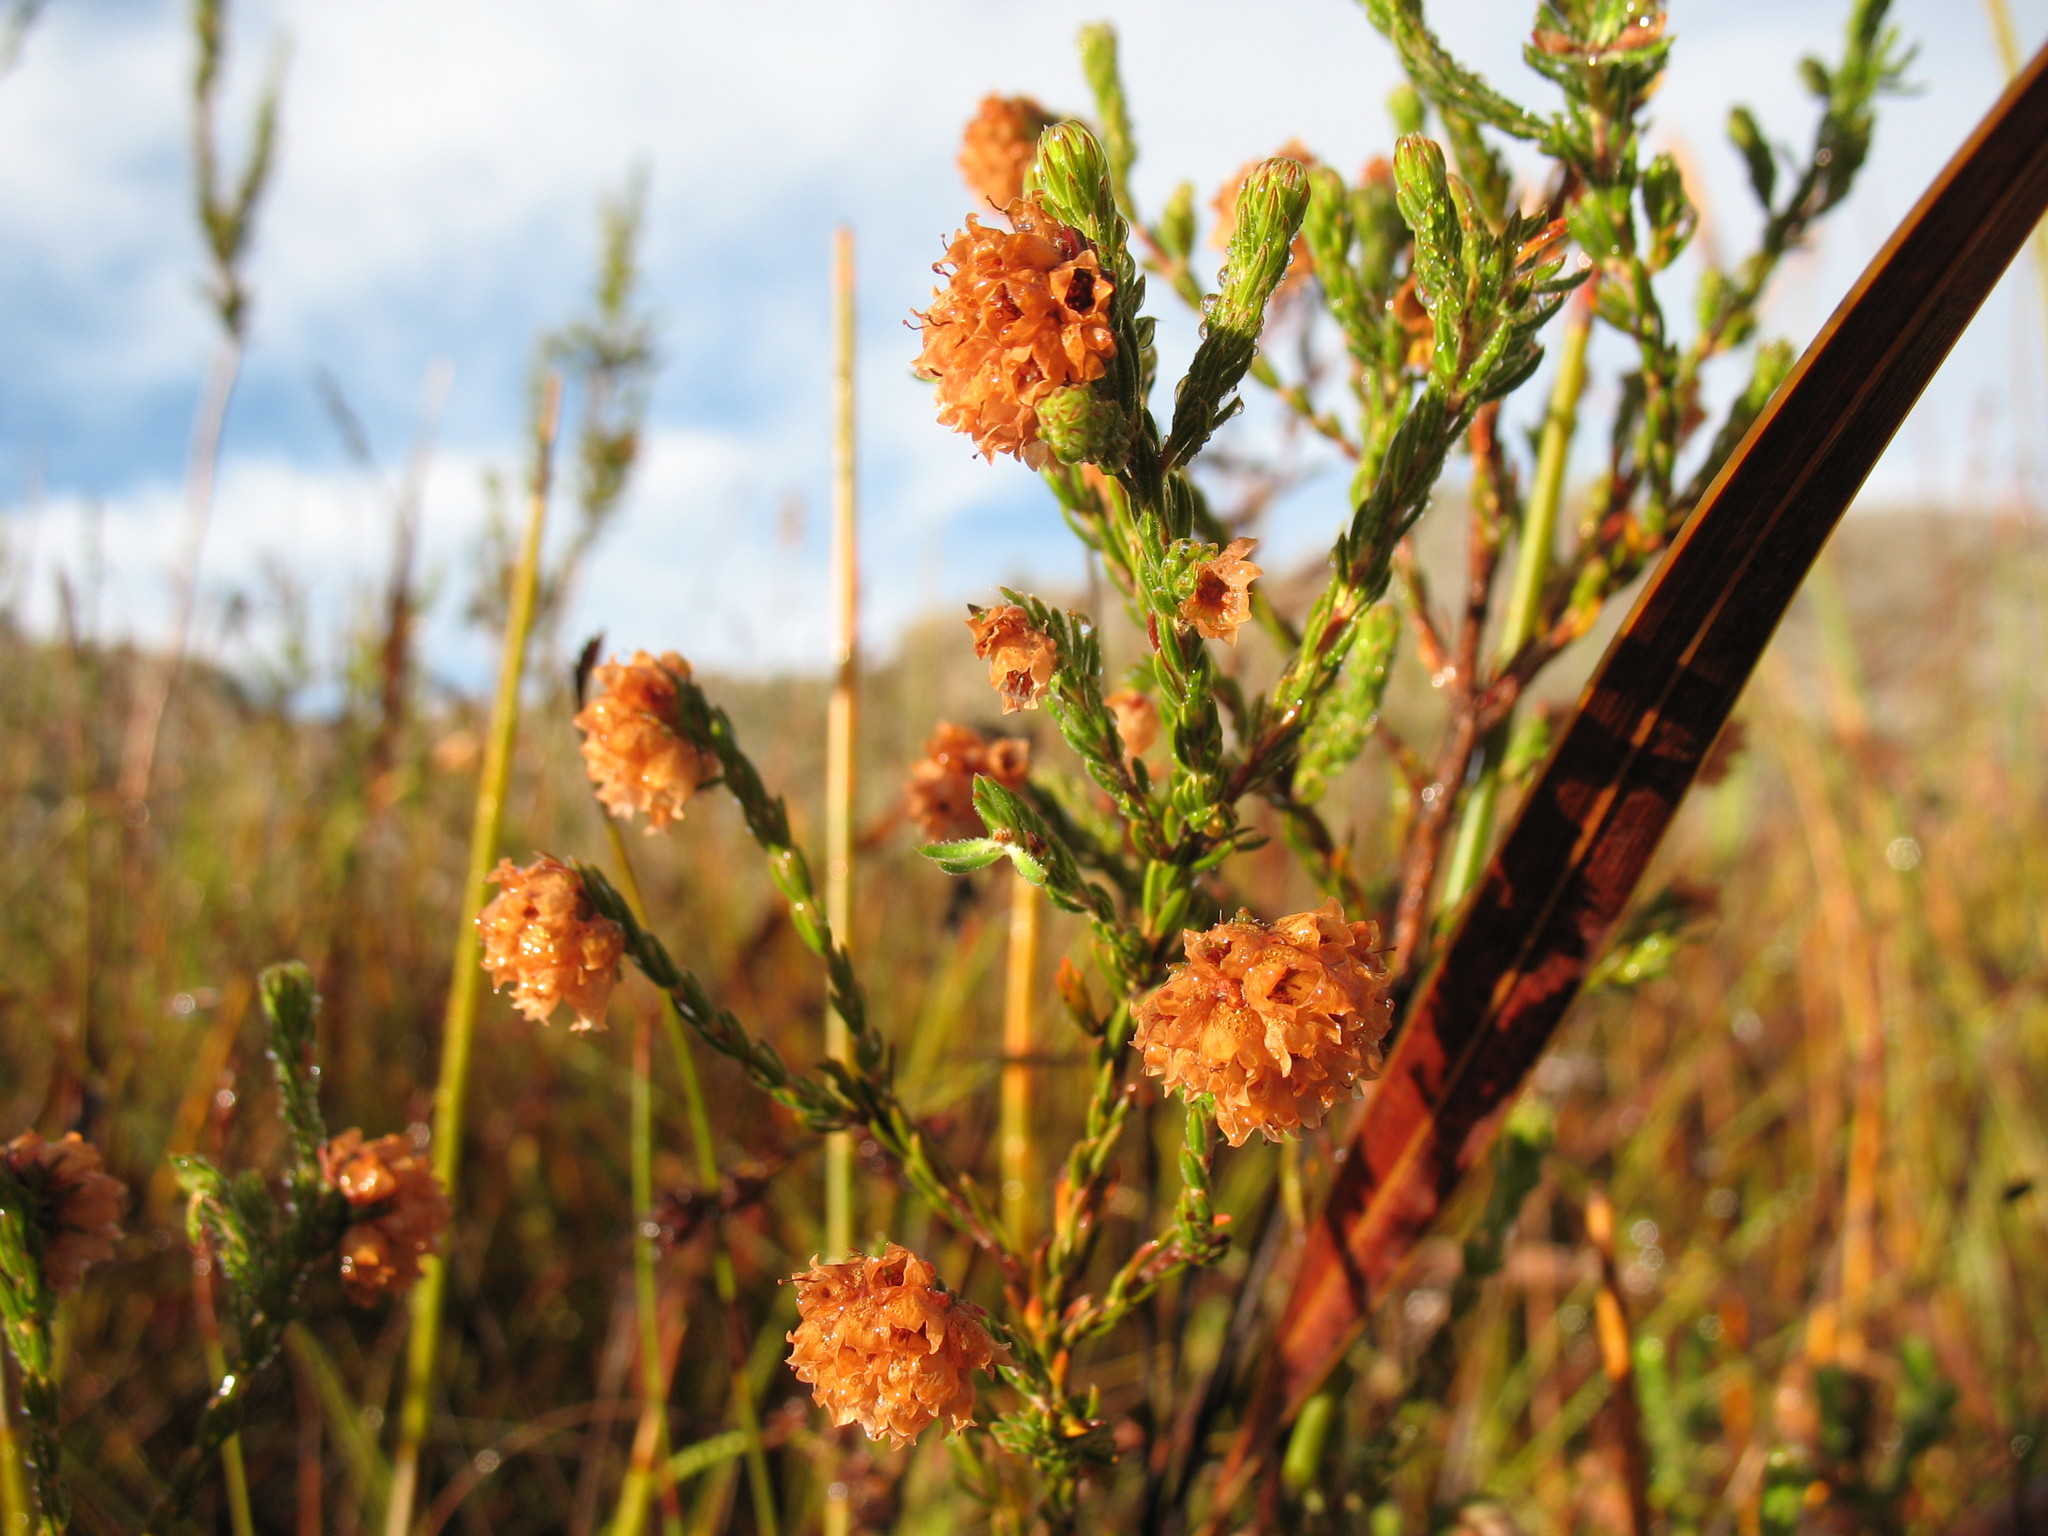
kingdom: Plantae
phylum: Tracheophyta
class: Magnoliopsida
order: Ericales
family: Ericaceae
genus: Erica
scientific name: Erica sphaerocephala
